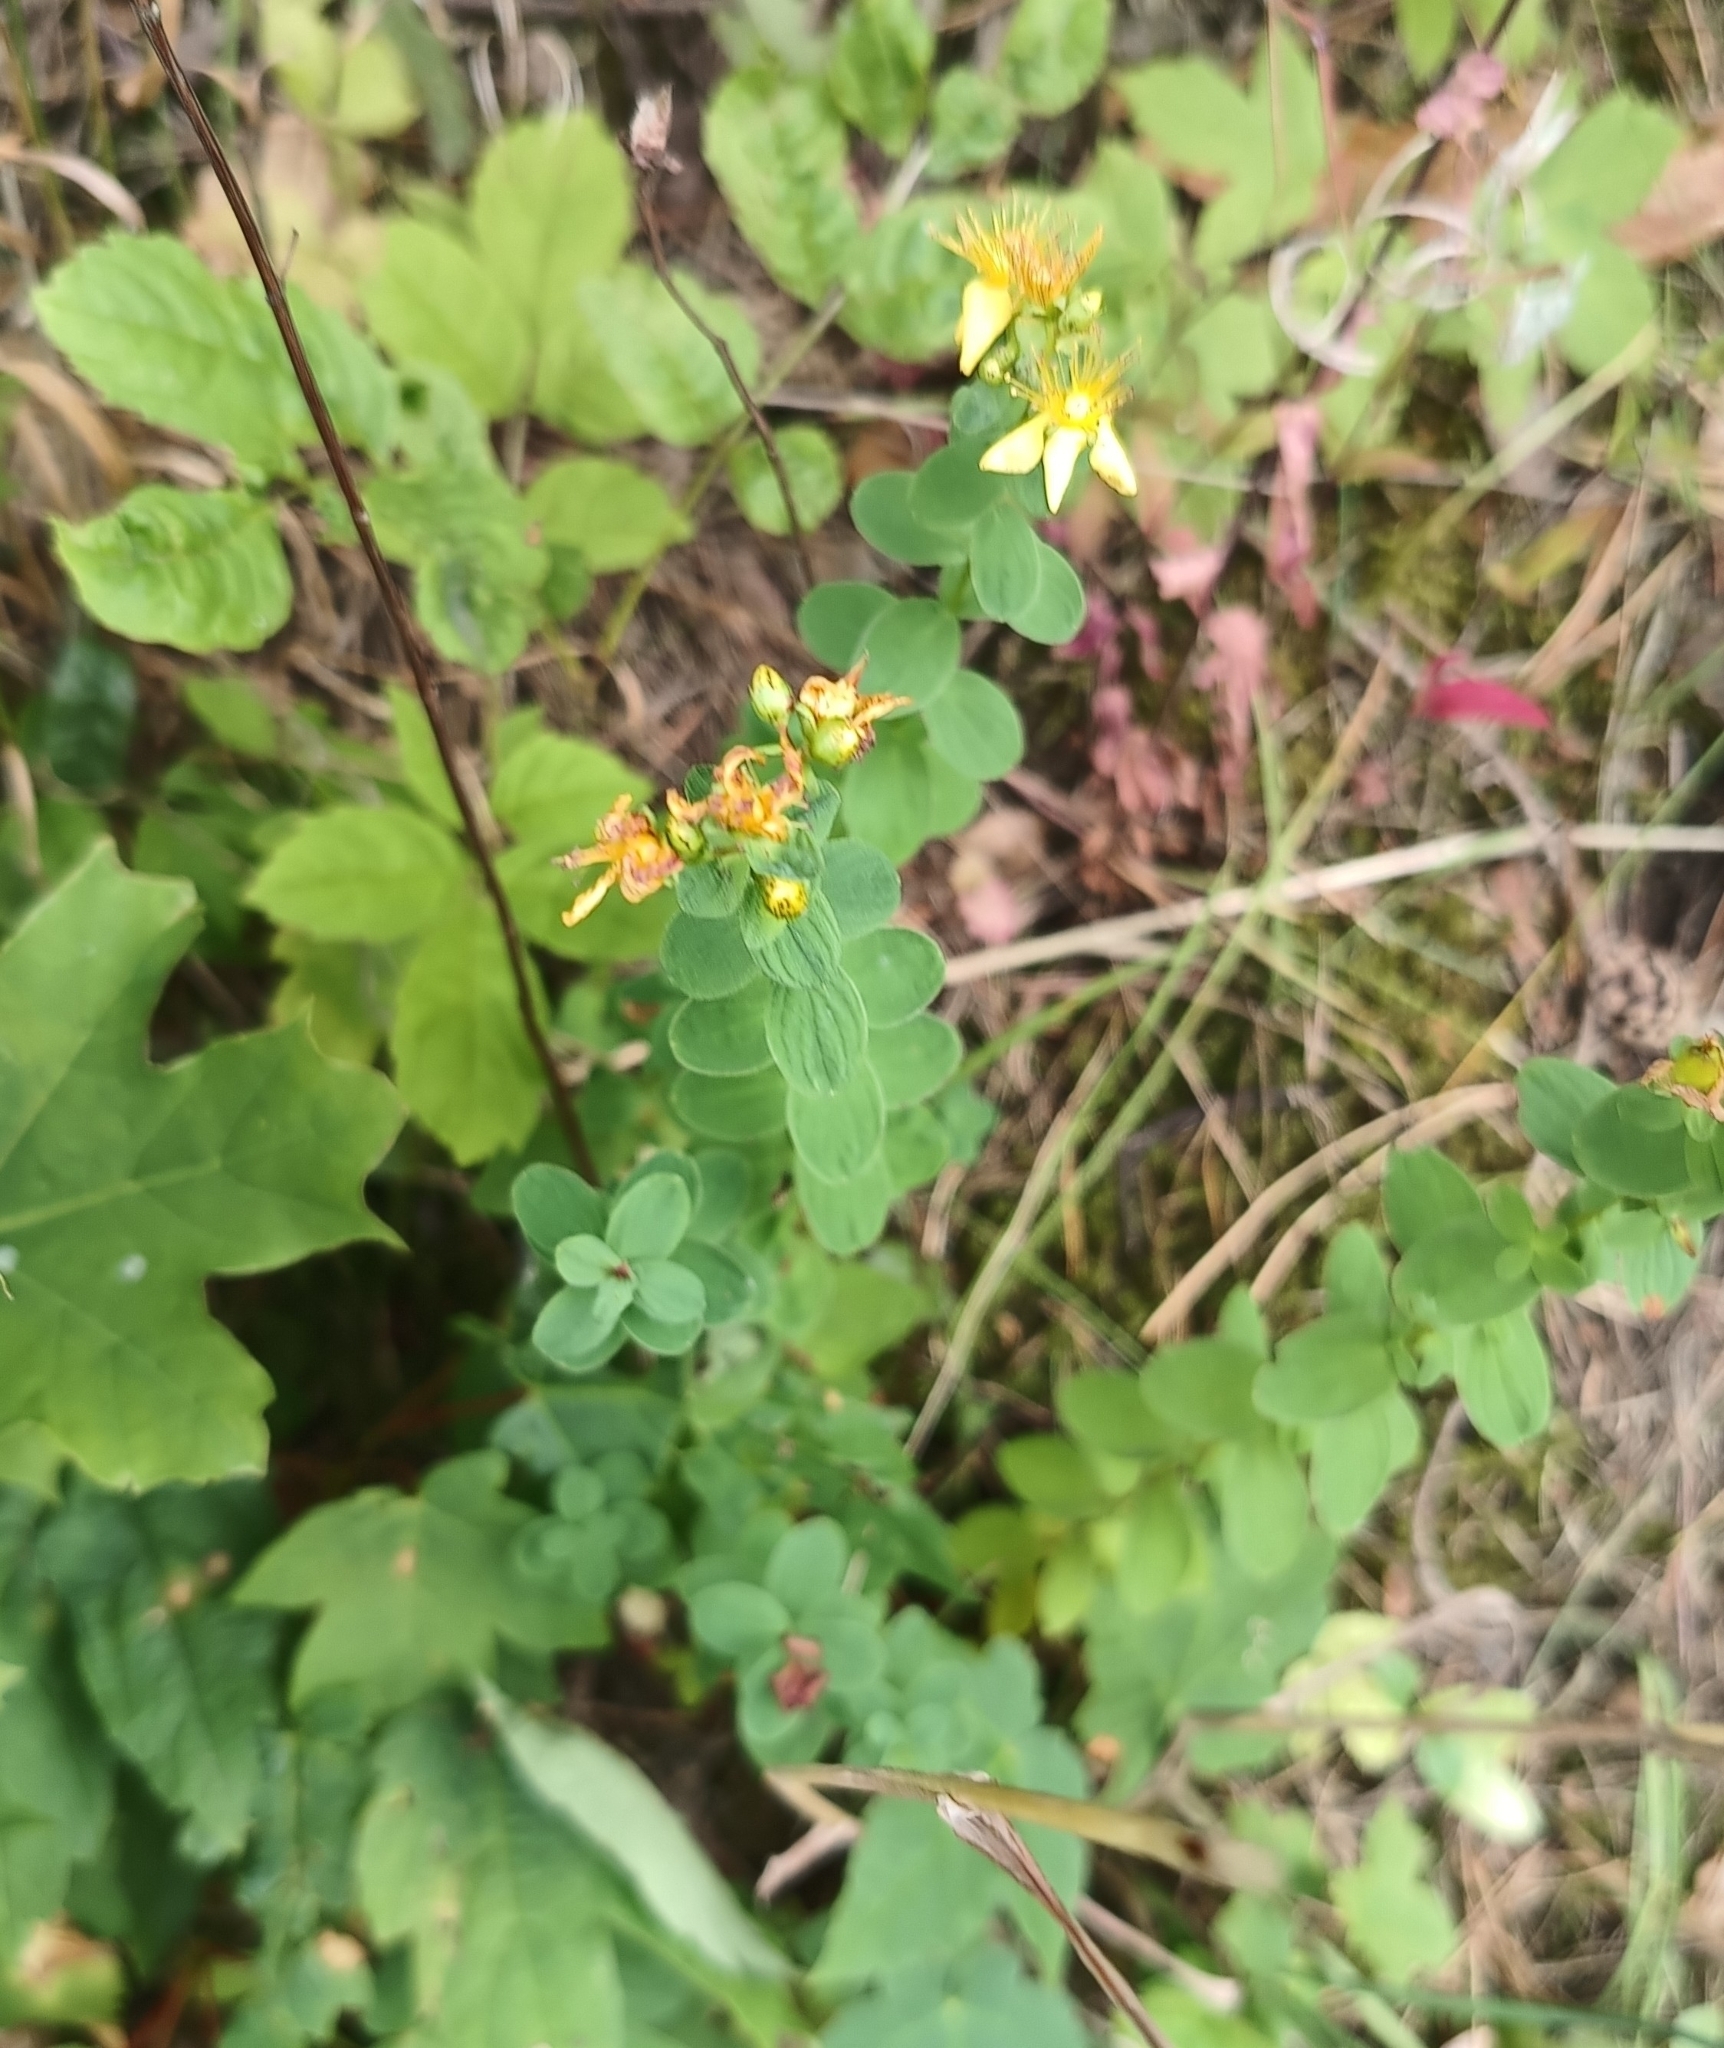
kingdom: Plantae
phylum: Tracheophyta
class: Magnoliopsida
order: Malpighiales
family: Hypericaceae
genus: Hypericum
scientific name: Hypericum maculatum
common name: Imperforate st. john's-wort
